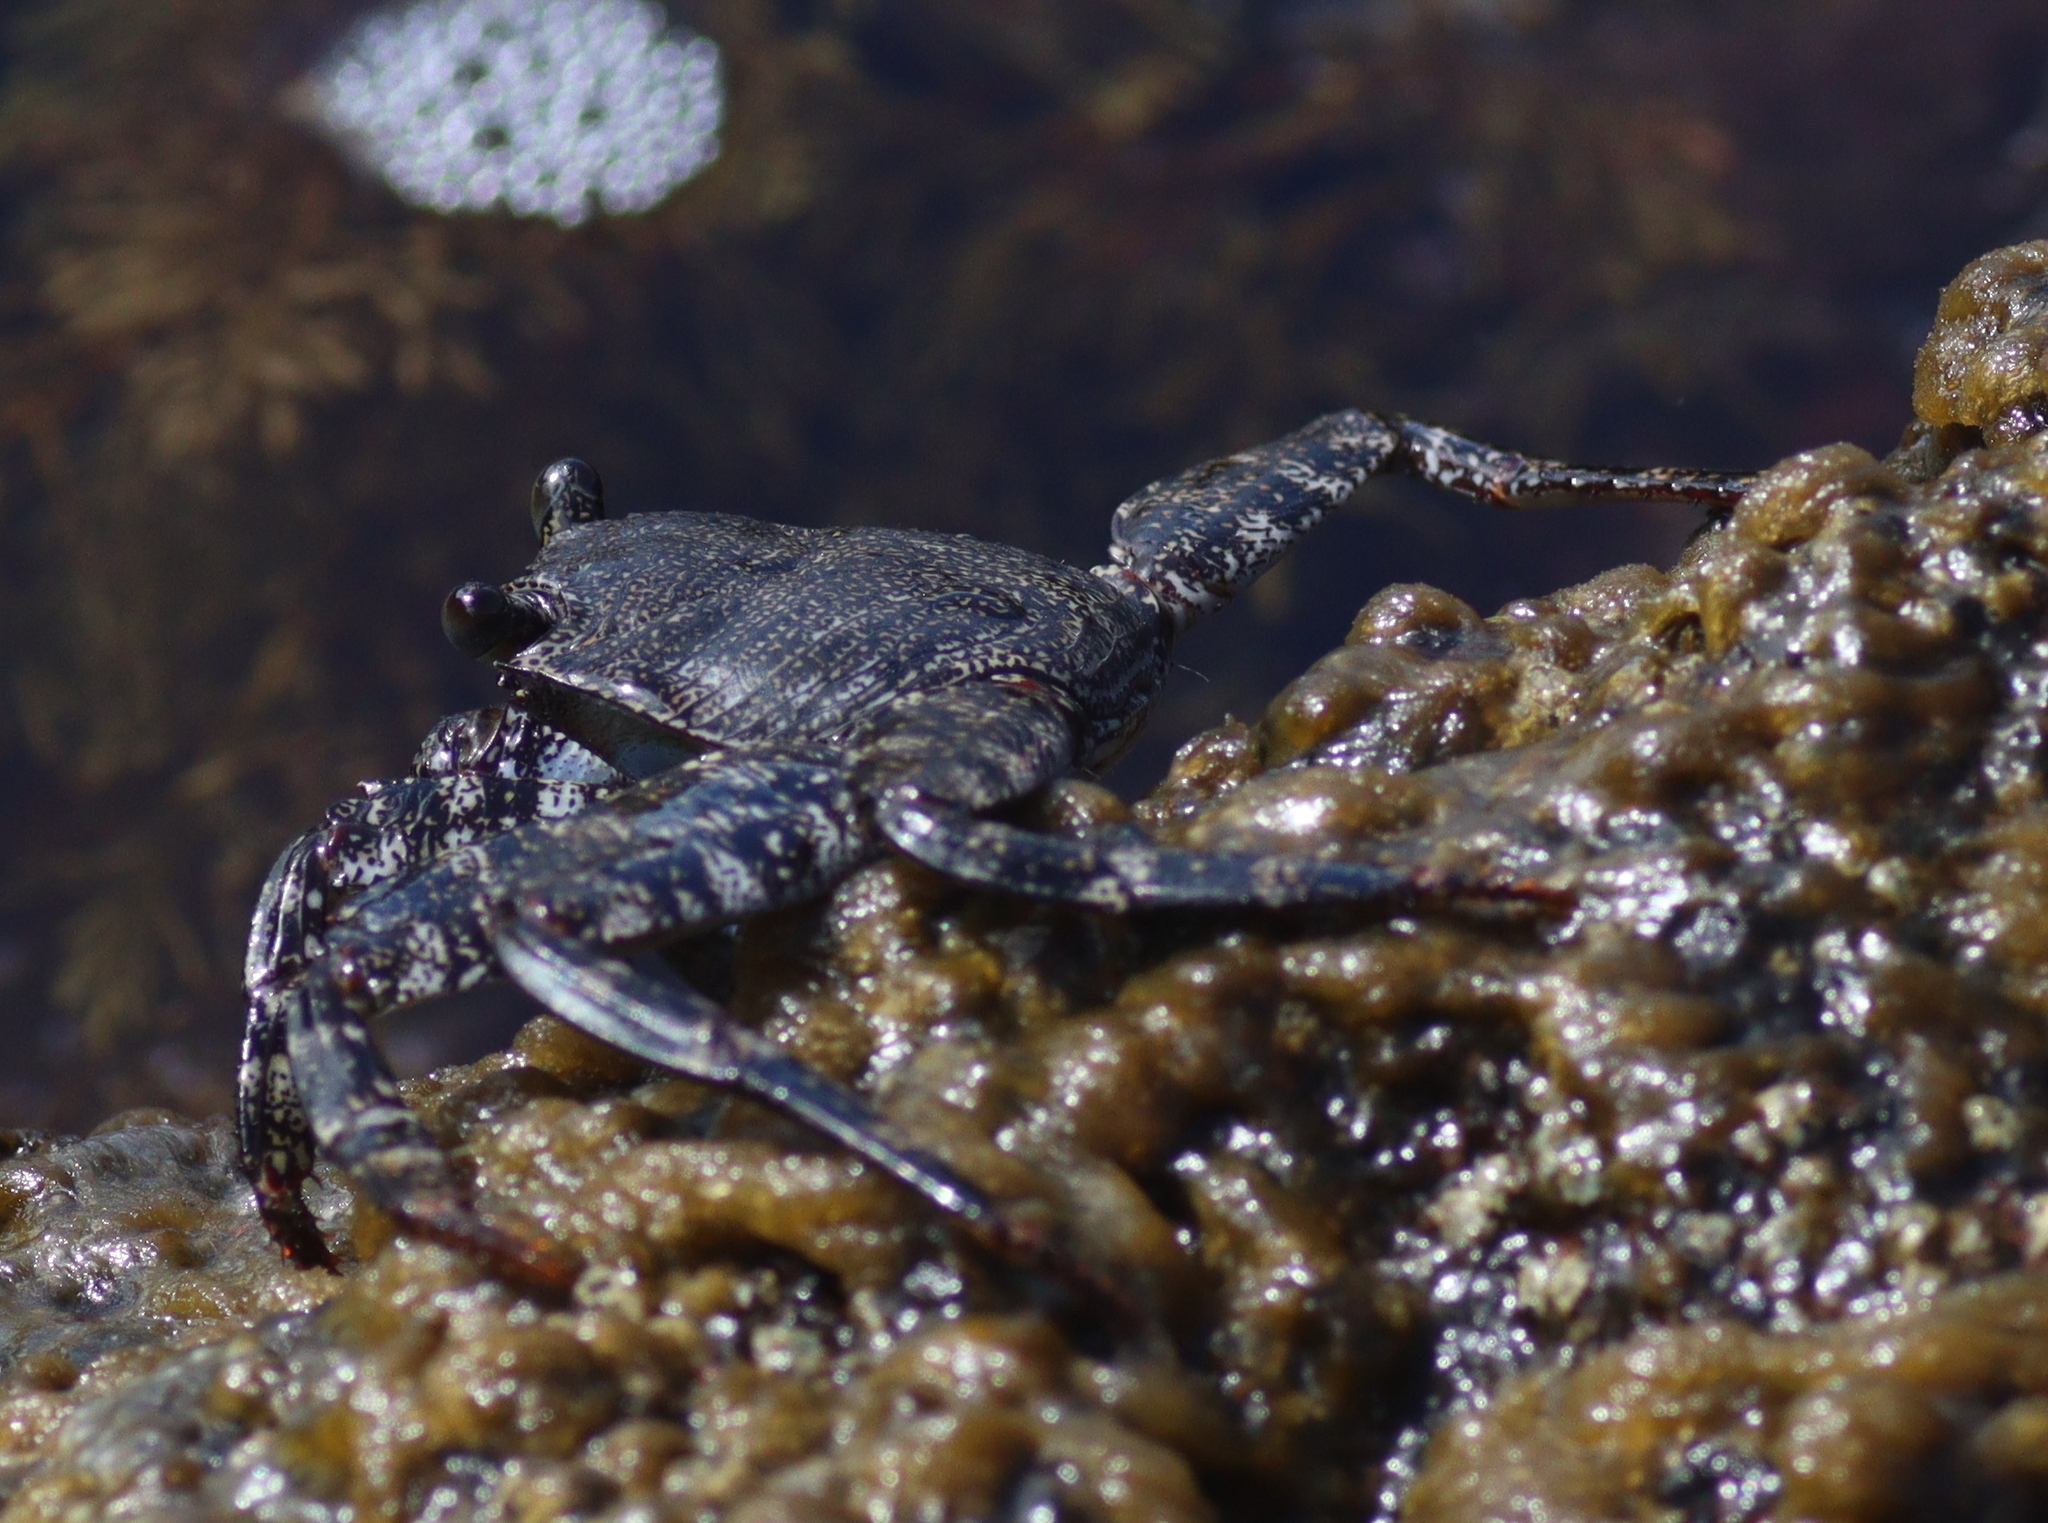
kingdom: Animalia
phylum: Arthropoda
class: Malacostraca
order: Decapoda
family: Grapsidae
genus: Grapsus
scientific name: Grapsus adscensionis
